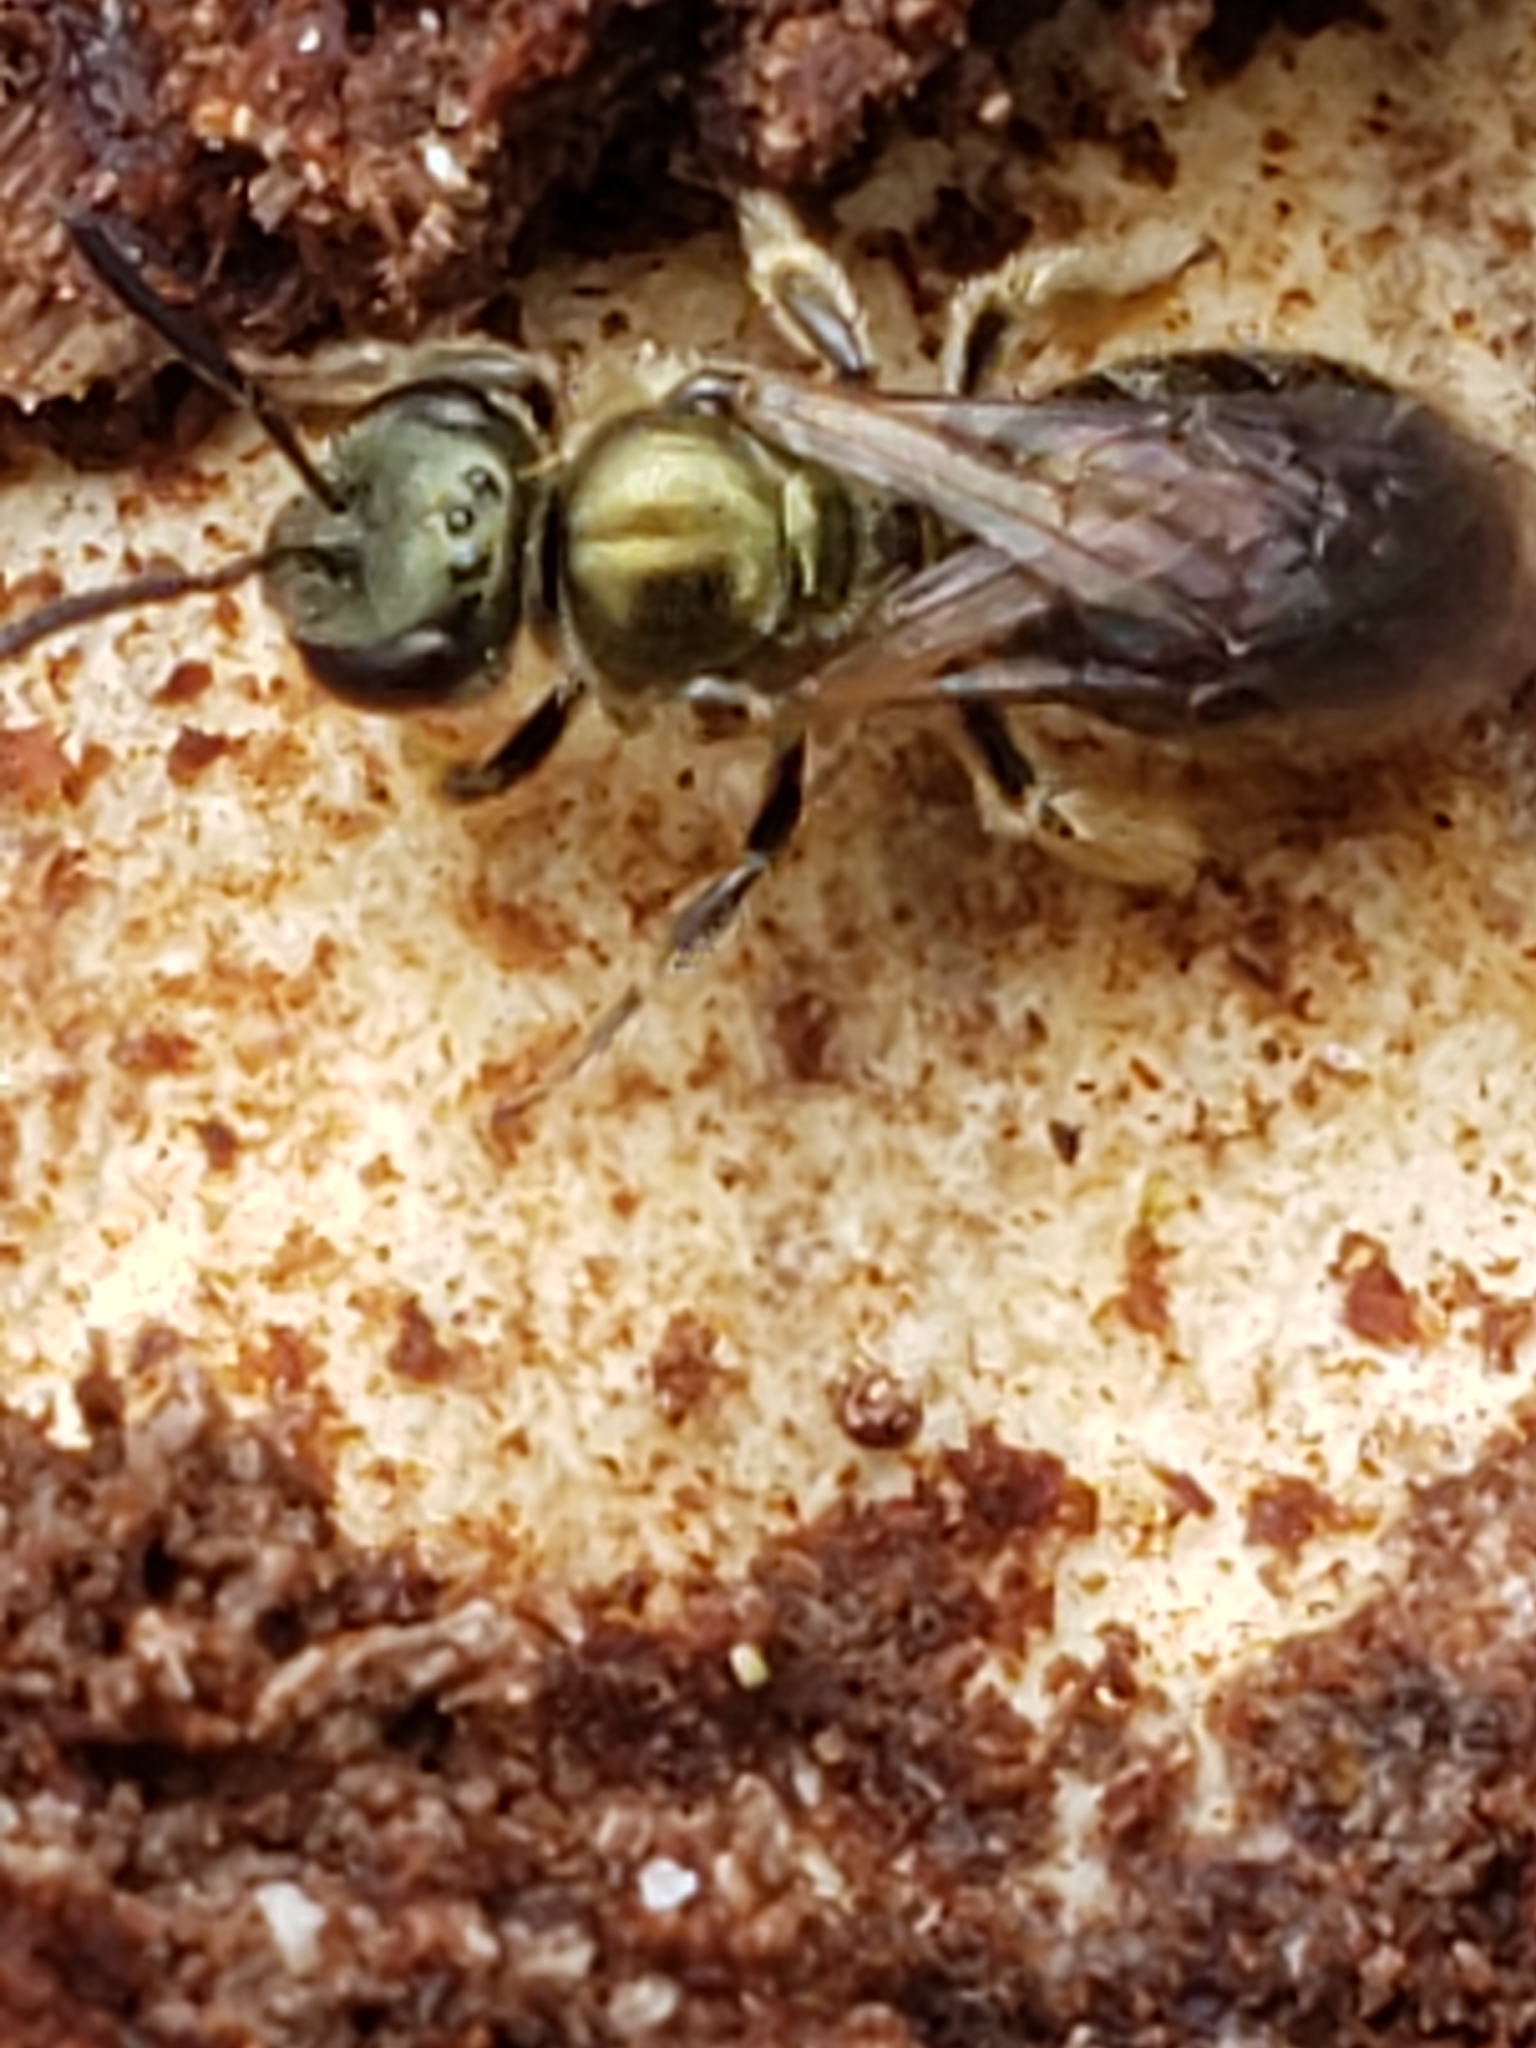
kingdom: Animalia
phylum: Arthropoda
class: Insecta
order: Hymenoptera
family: Halictidae
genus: Dialictus
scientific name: Dialictus
